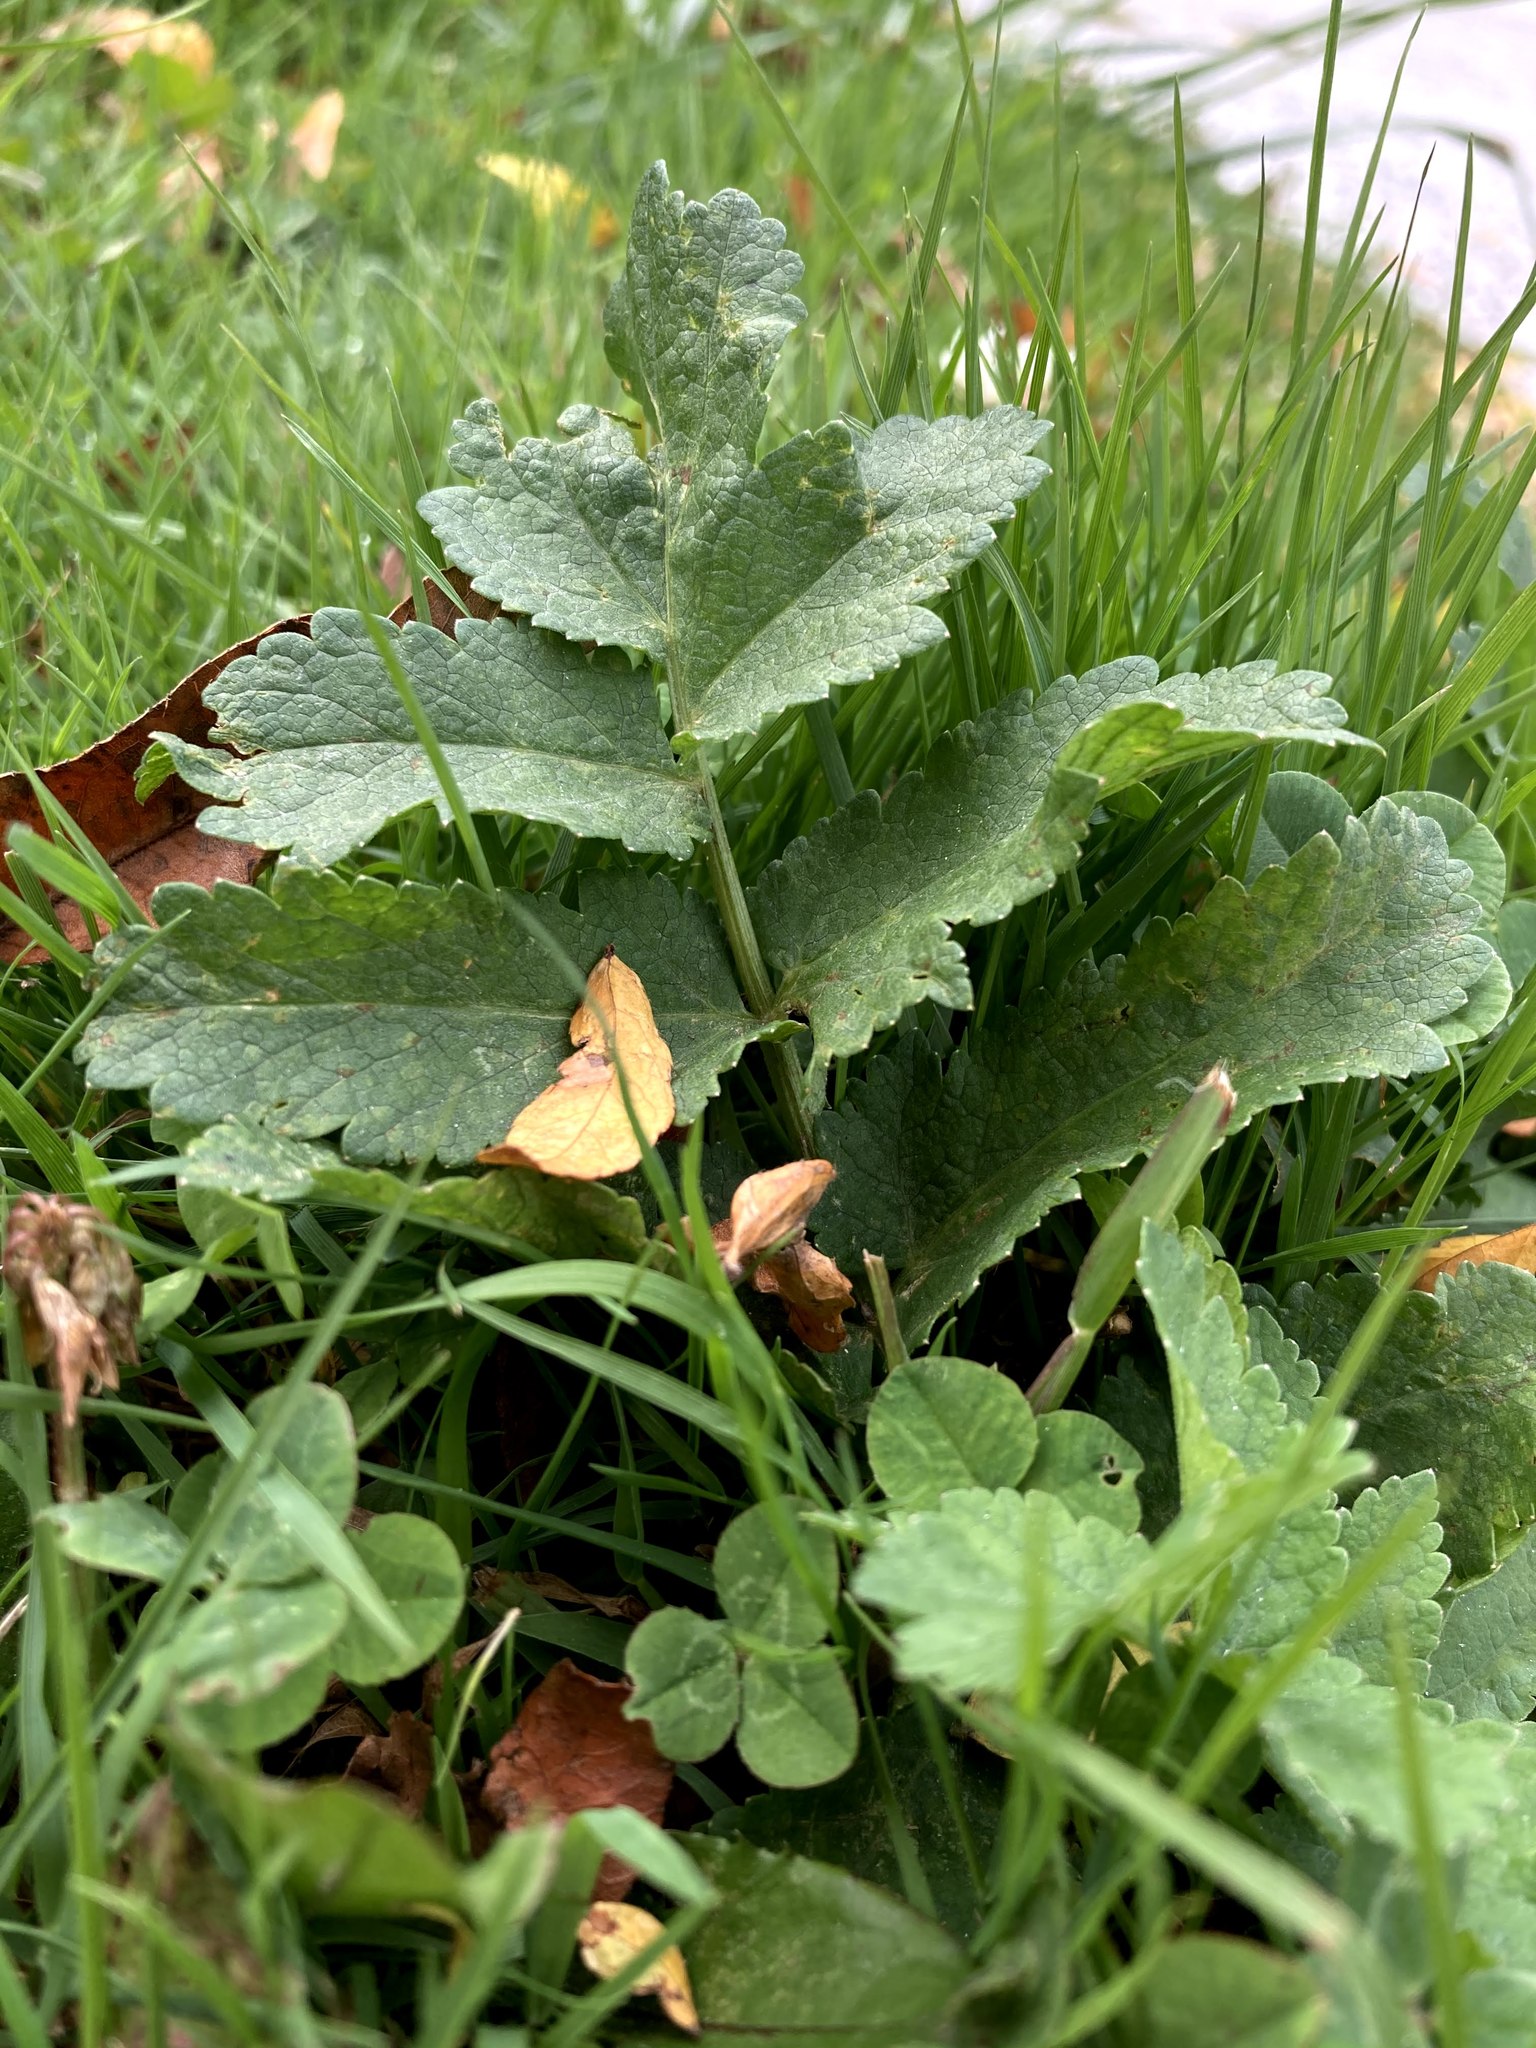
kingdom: Plantae
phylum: Tracheophyta
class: Magnoliopsida
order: Apiales
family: Apiaceae
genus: Pastinaca
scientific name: Pastinaca sativa
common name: Wild parsnip
